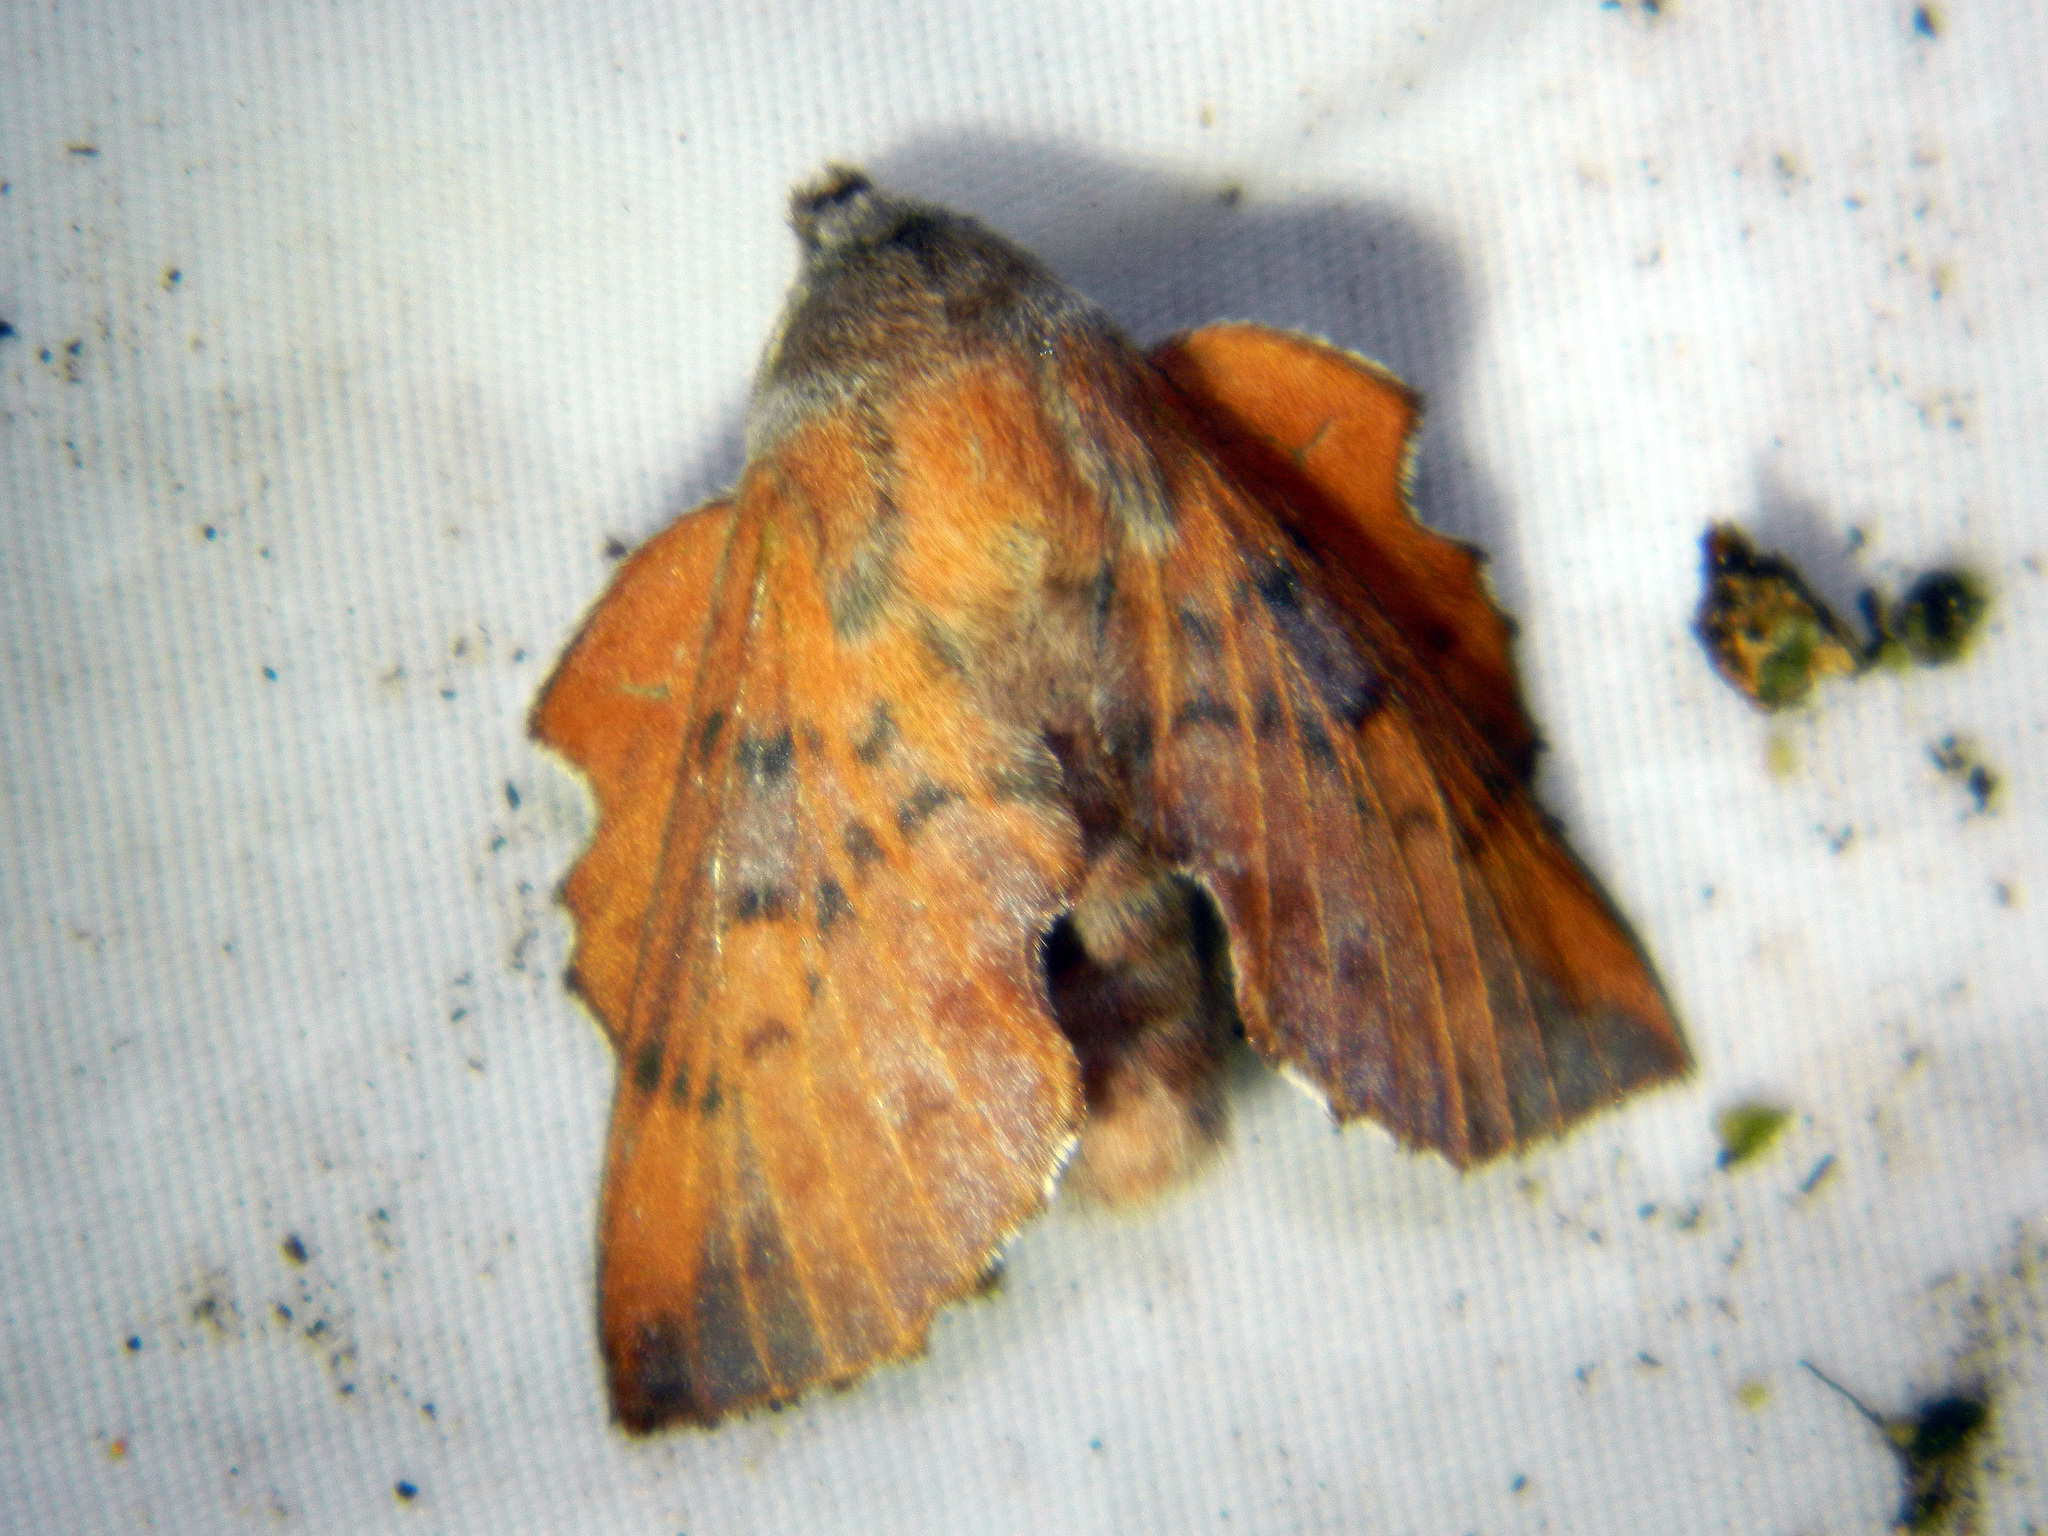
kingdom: Animalia
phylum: Arthropoda
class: Insecta
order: Lepidoptera
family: Lasiocampidae
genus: Phyllodesma
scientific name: Phyllodesma americana
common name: American lappet moth
